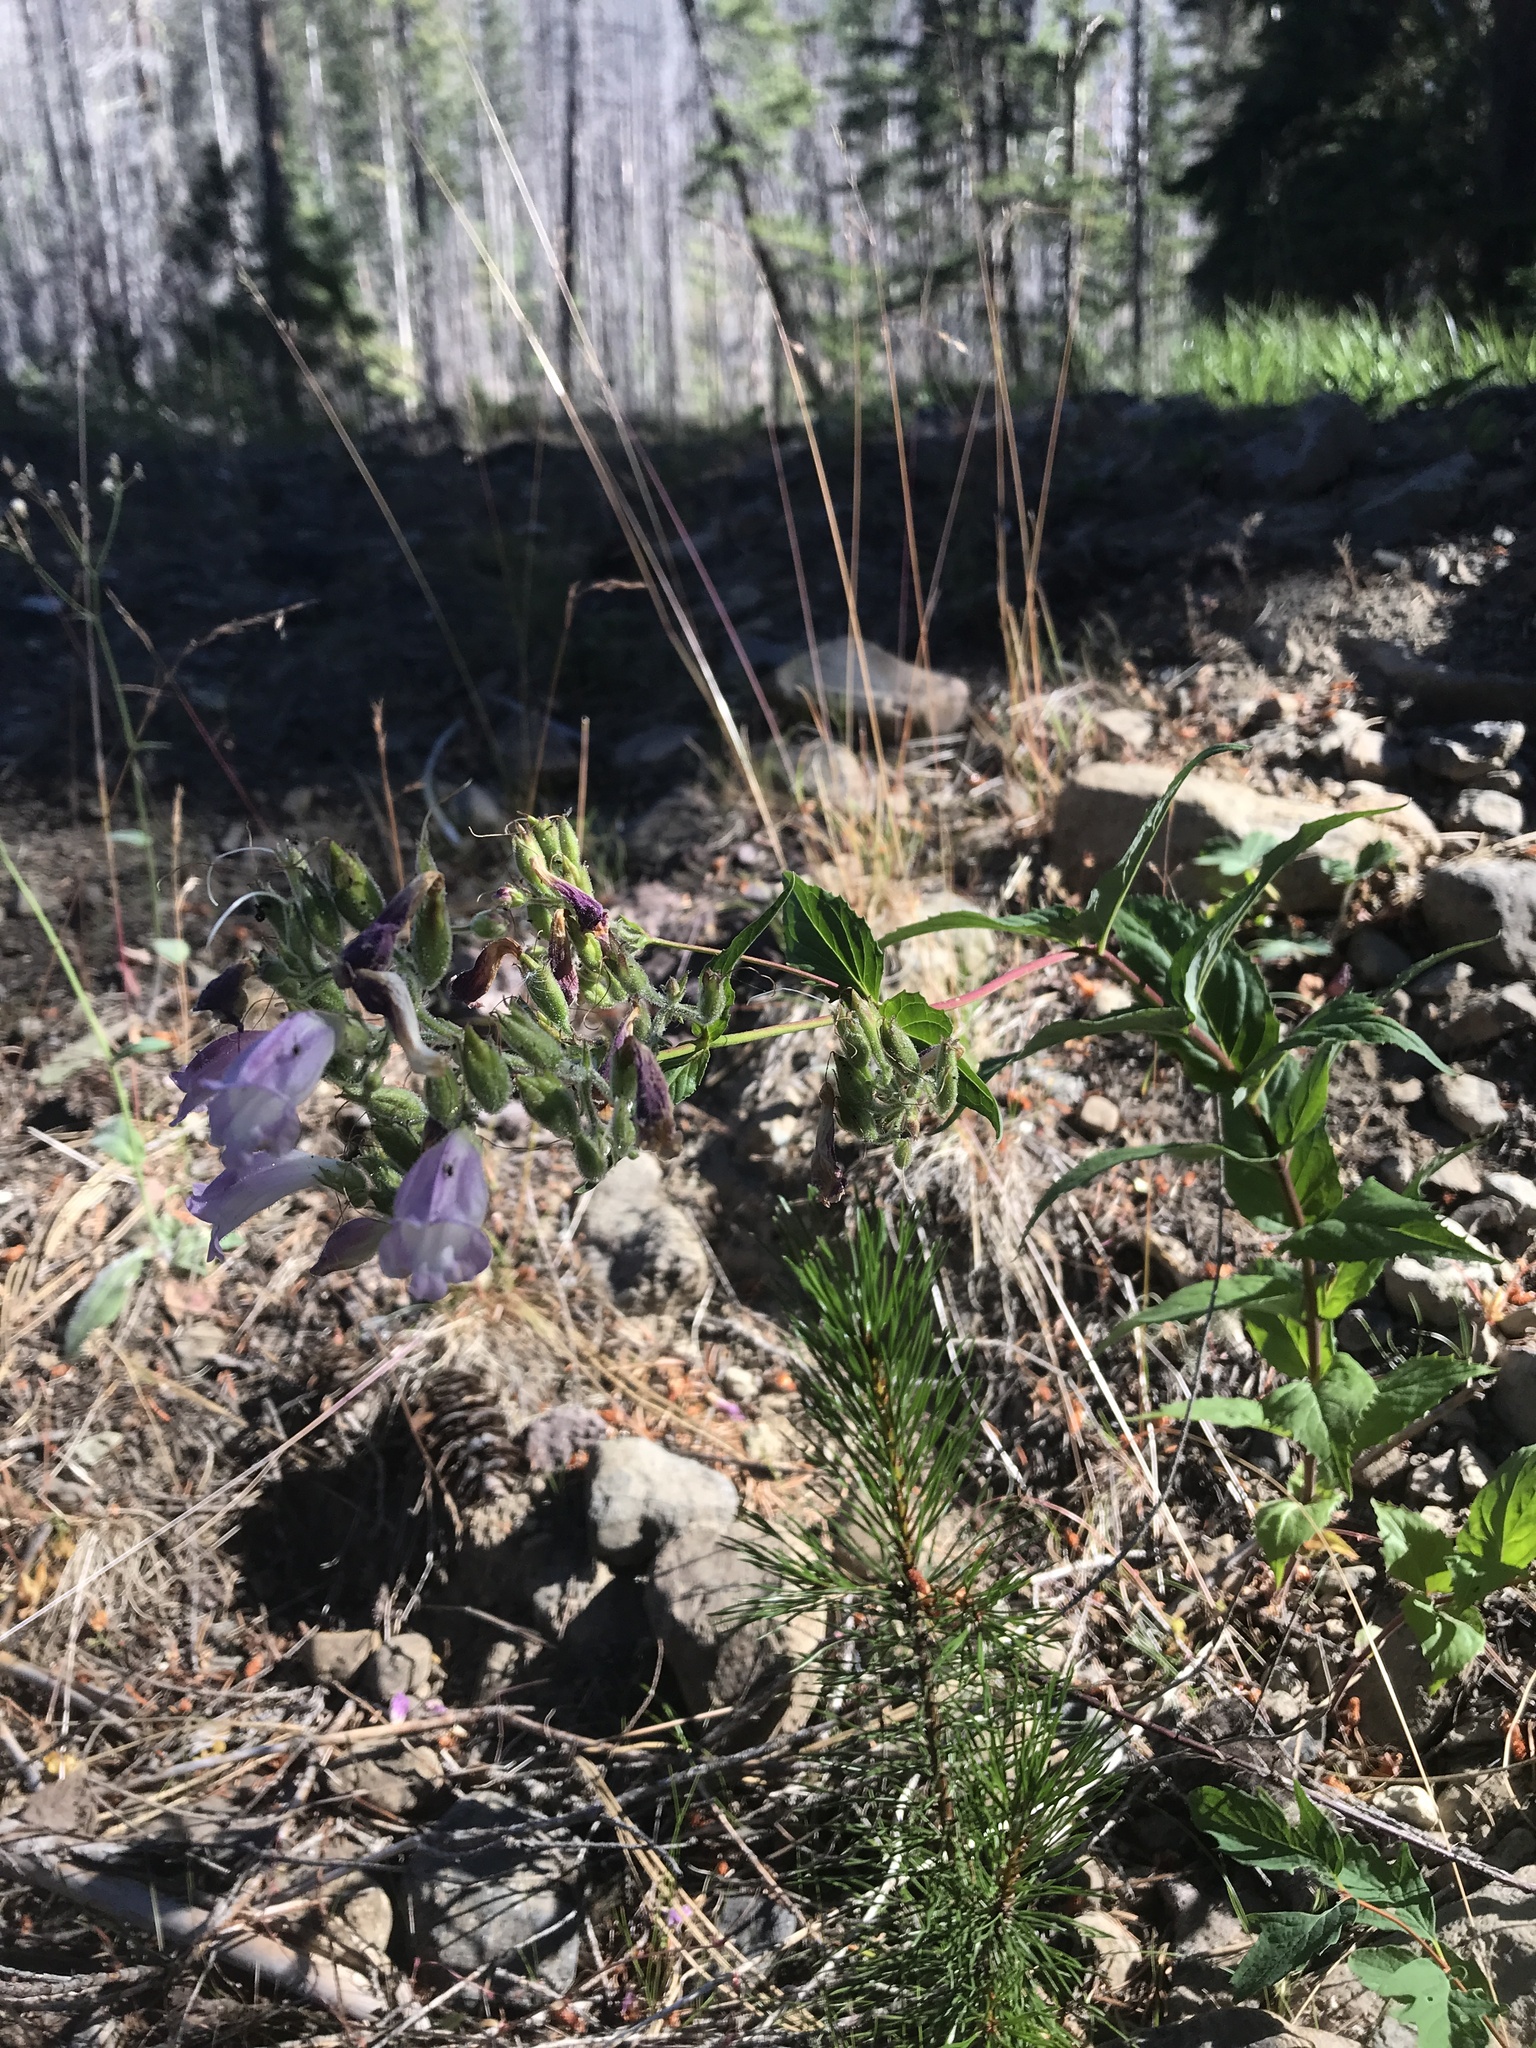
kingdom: Plantae
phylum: Tracheophyta
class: Magnoliopsida
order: Lamiales
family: Plantaginaceae
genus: Nothochelone
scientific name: Nothochelone nemorosa
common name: Woodland beardtongue
